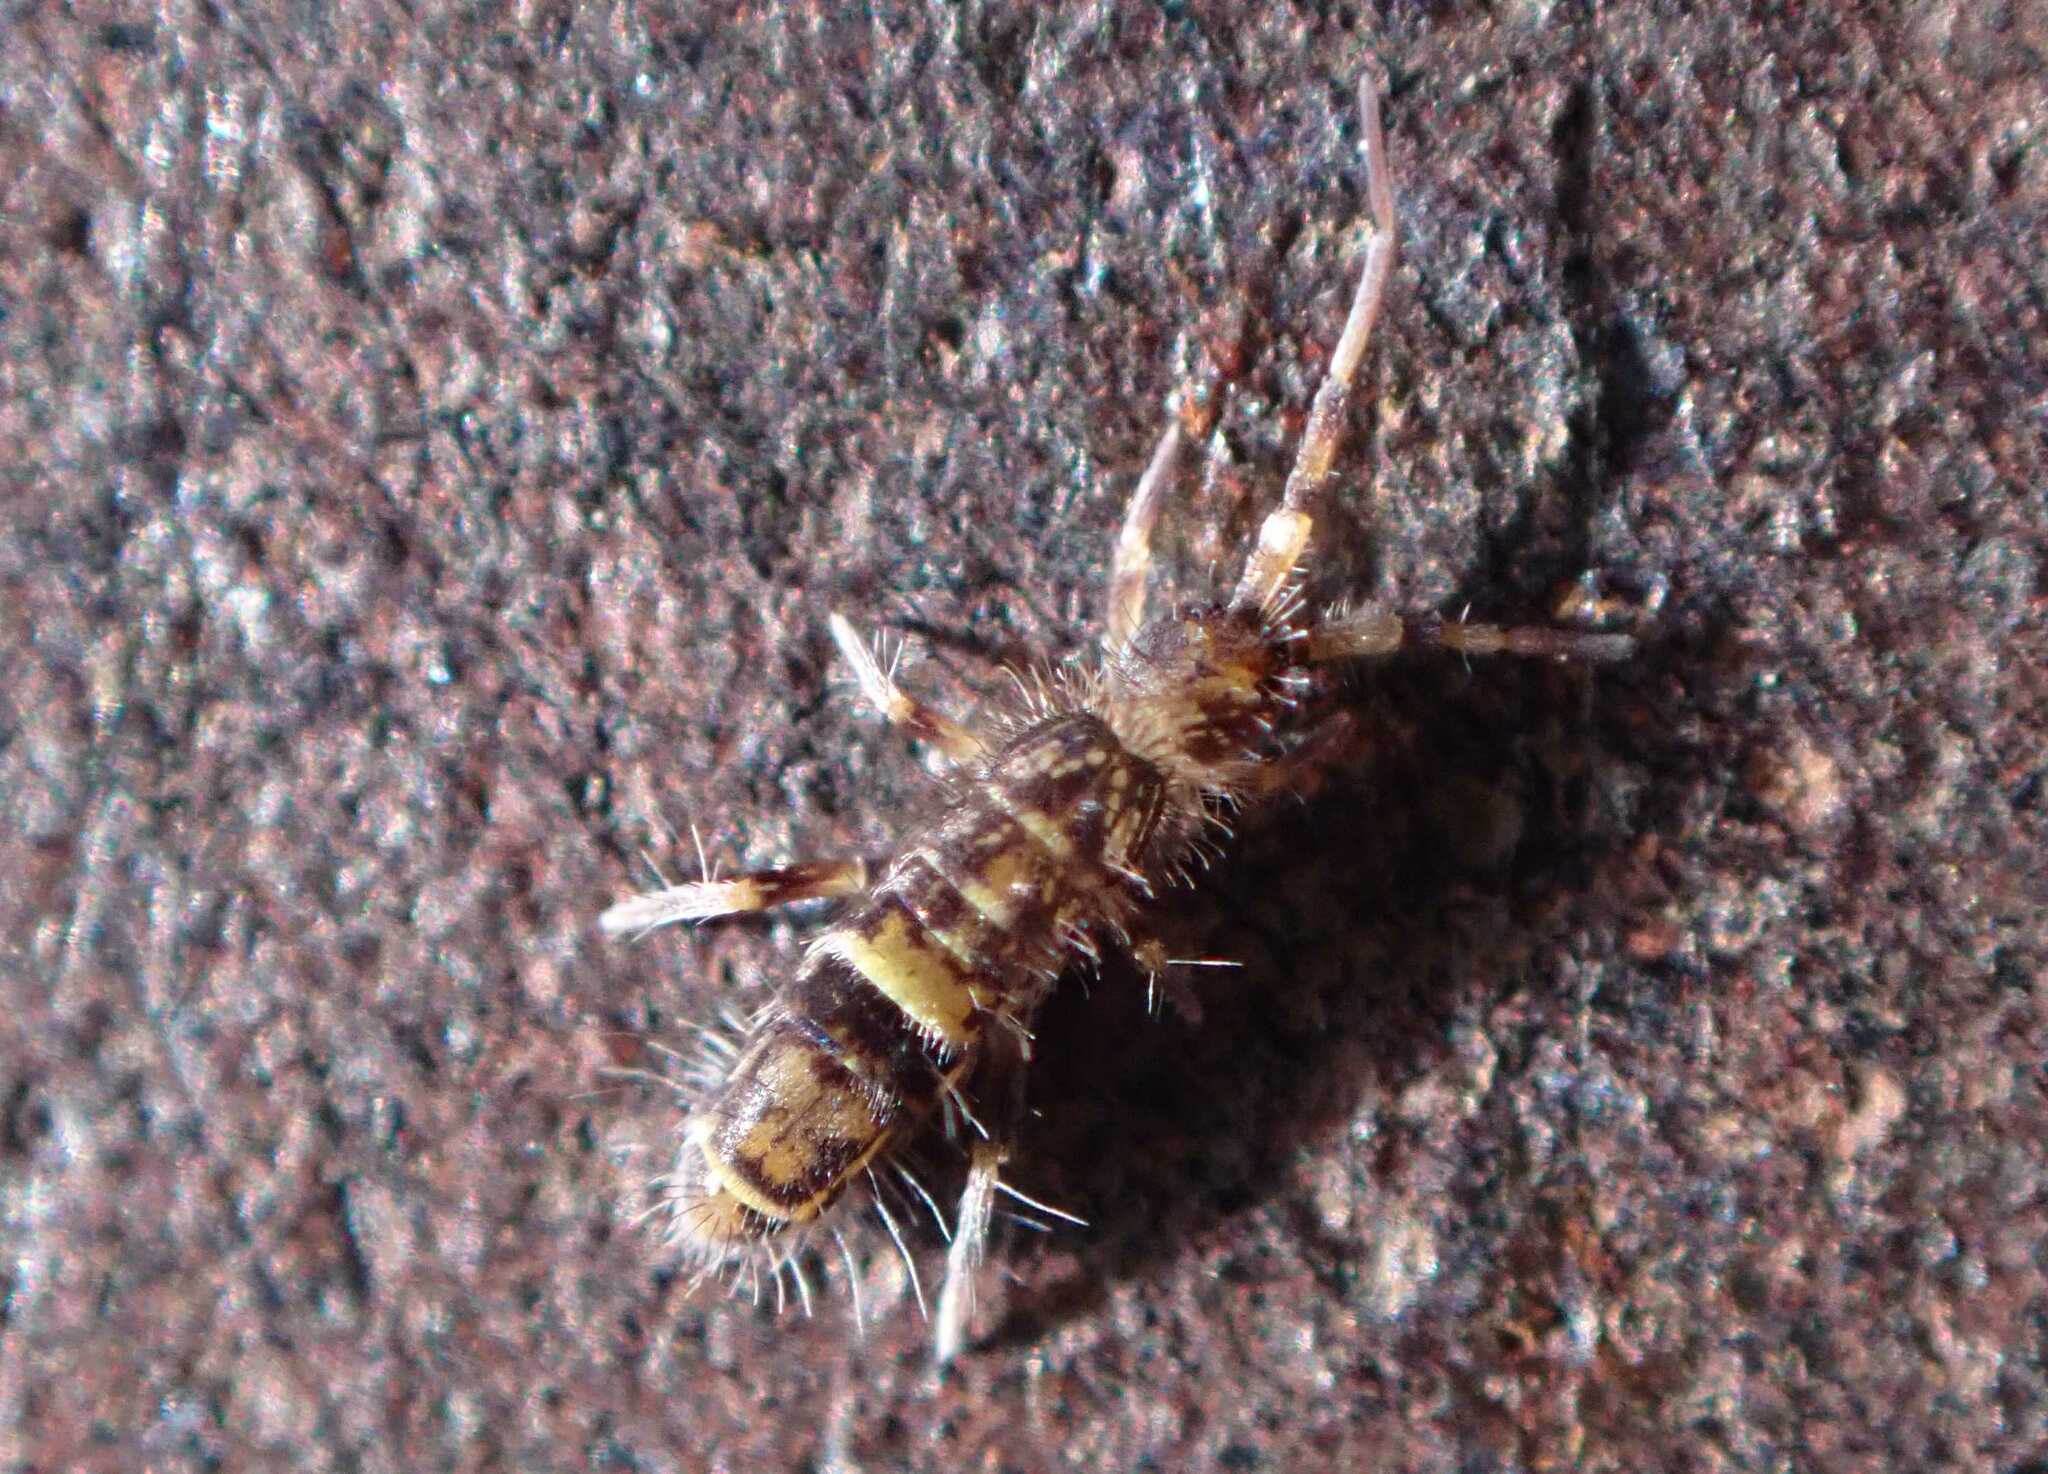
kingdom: Animalia
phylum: Arthropoda
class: Collembola
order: Entomobryomorpha
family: Orchesellidae
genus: Orchesella
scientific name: Orchesella cincta
